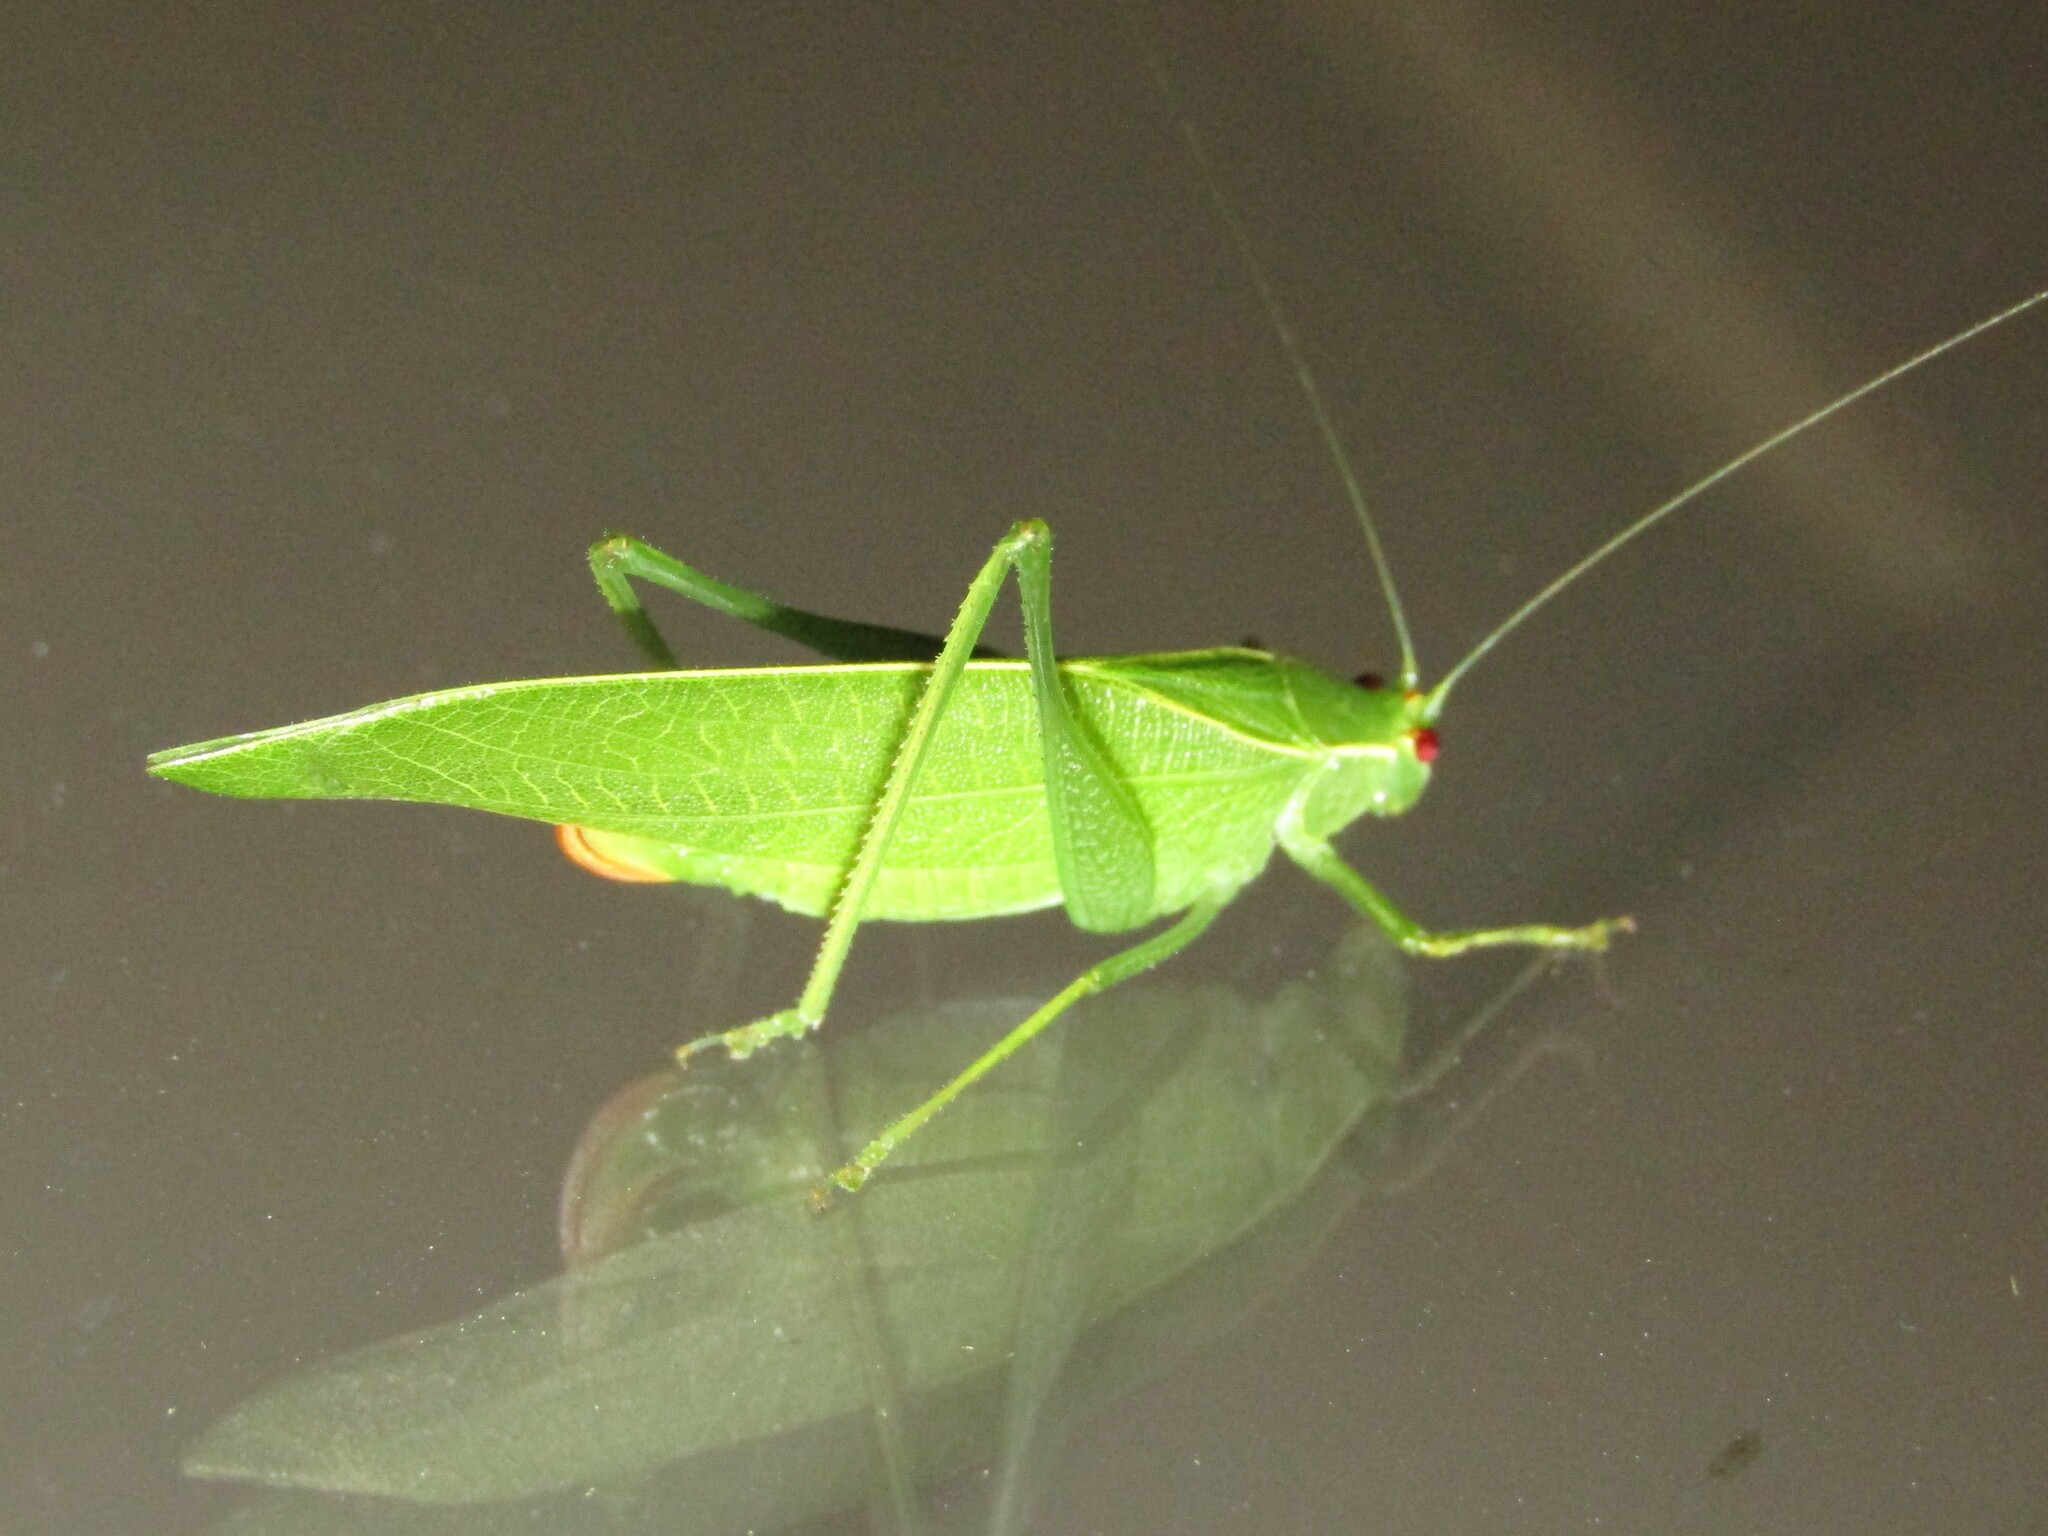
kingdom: Animalia
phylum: Arthropoda
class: Insecta
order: Orthoptera
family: Tettigoniidae
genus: Montezumina
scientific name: Montezumina modesta
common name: Modest katydid
